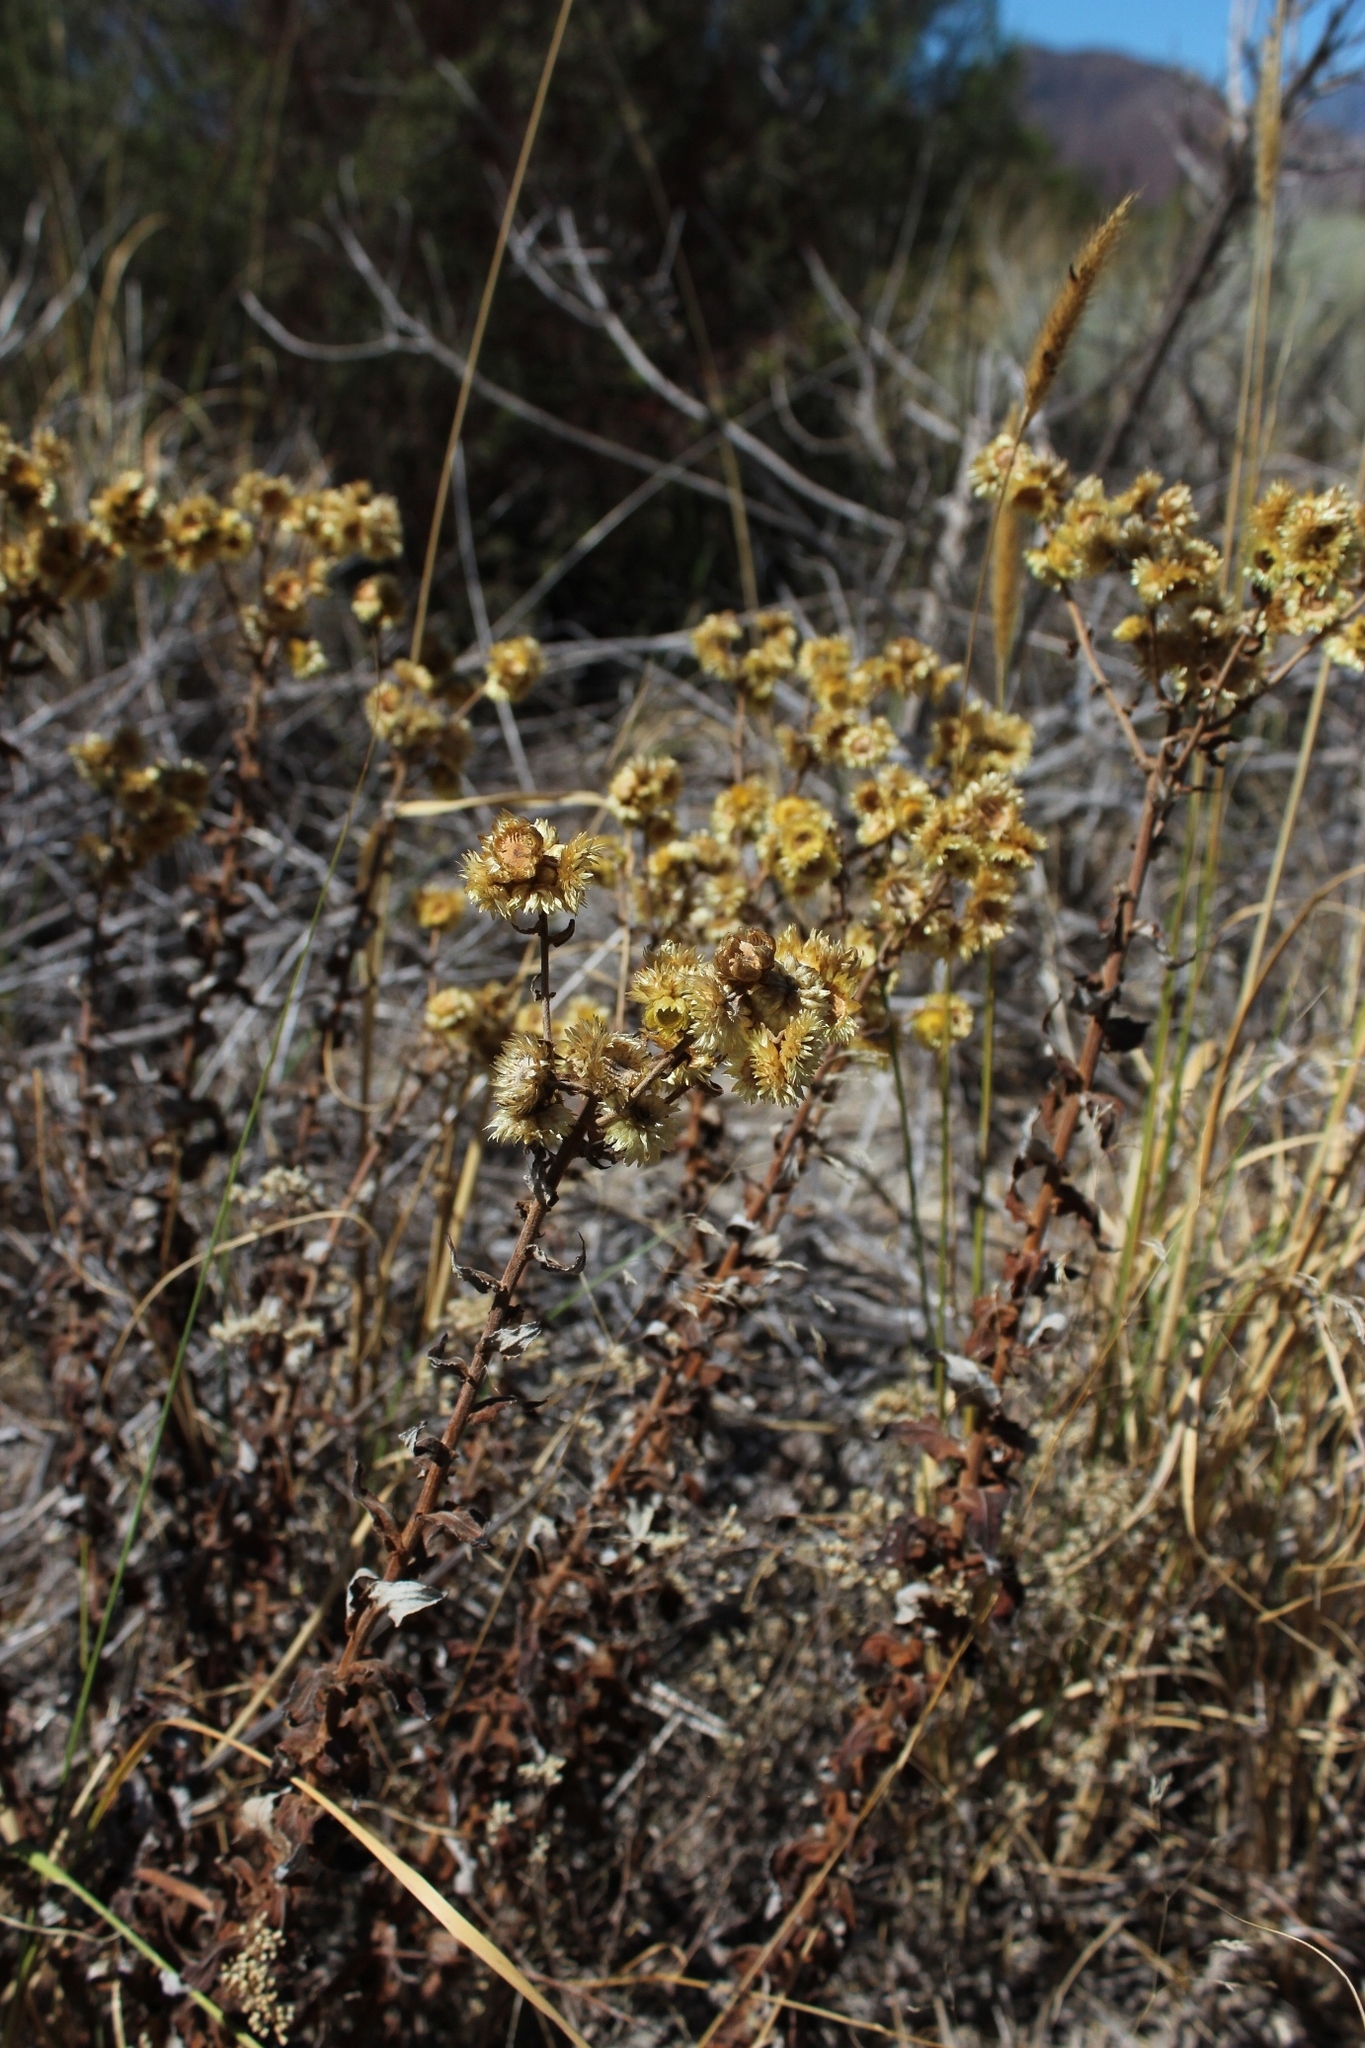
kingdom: Plantae
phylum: Tracheophyta
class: Magnoliopsida
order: Asterales
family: Asteraceae
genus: Helichrysum
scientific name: Helichrysum foetidum
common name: Stinking everlasting
